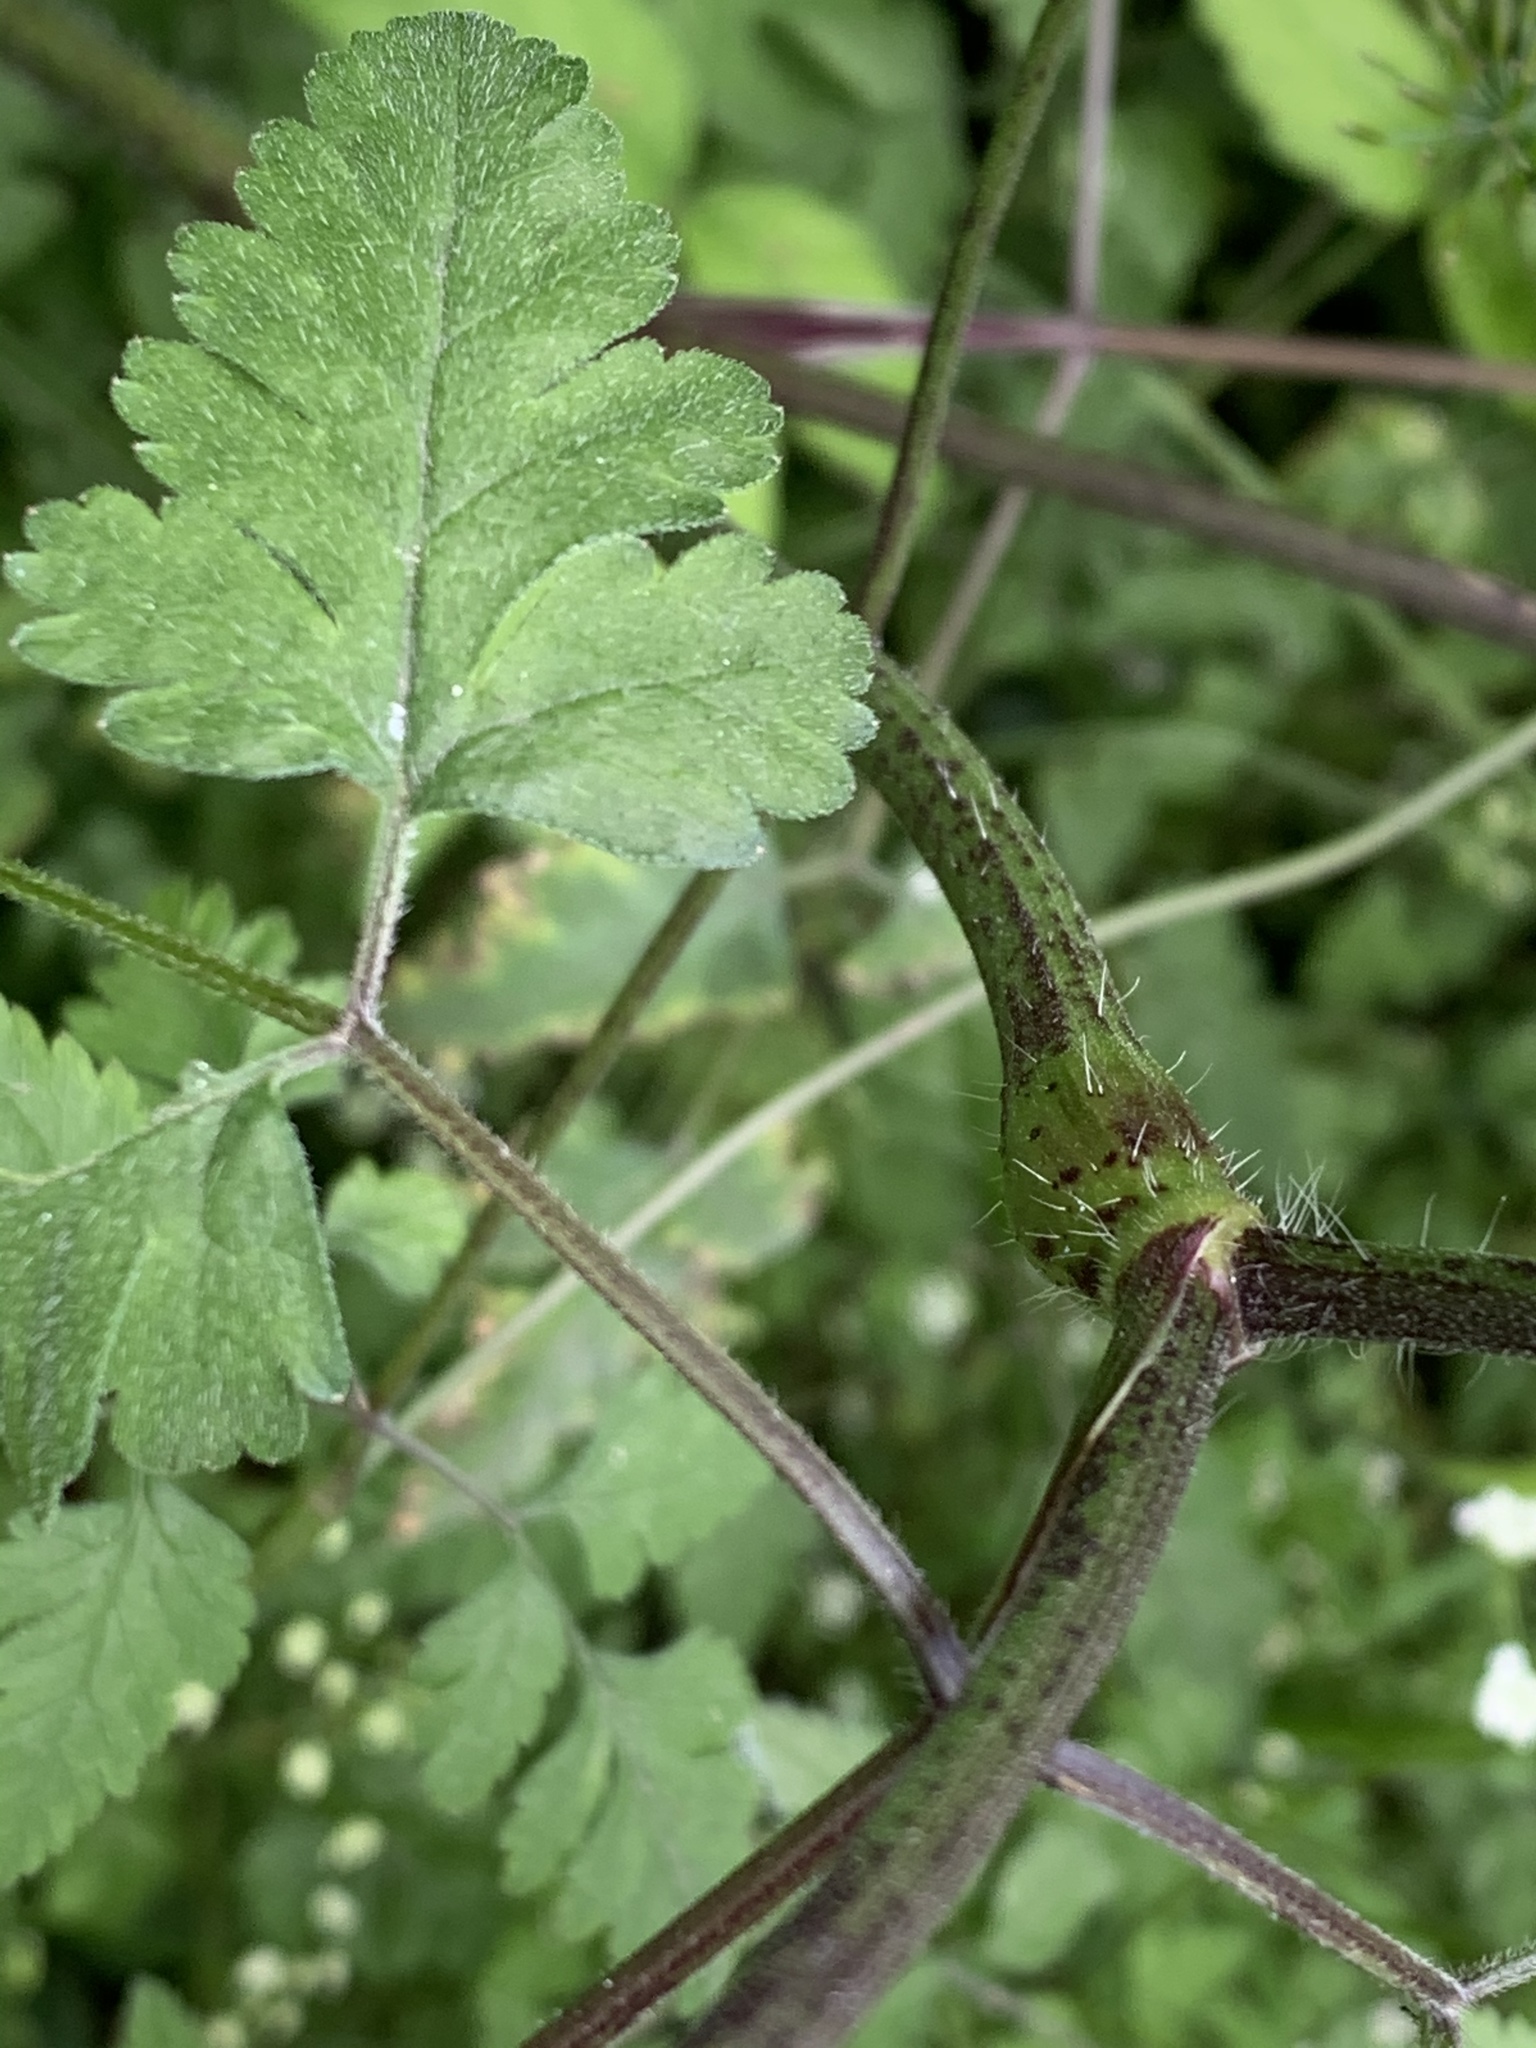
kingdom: Plantae
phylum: Tracheophyta
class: Magnoliopsida
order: Apiales
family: Apiaceae
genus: Chaerophyllum
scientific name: Chaerophyllum temulum
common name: Rough chervil
